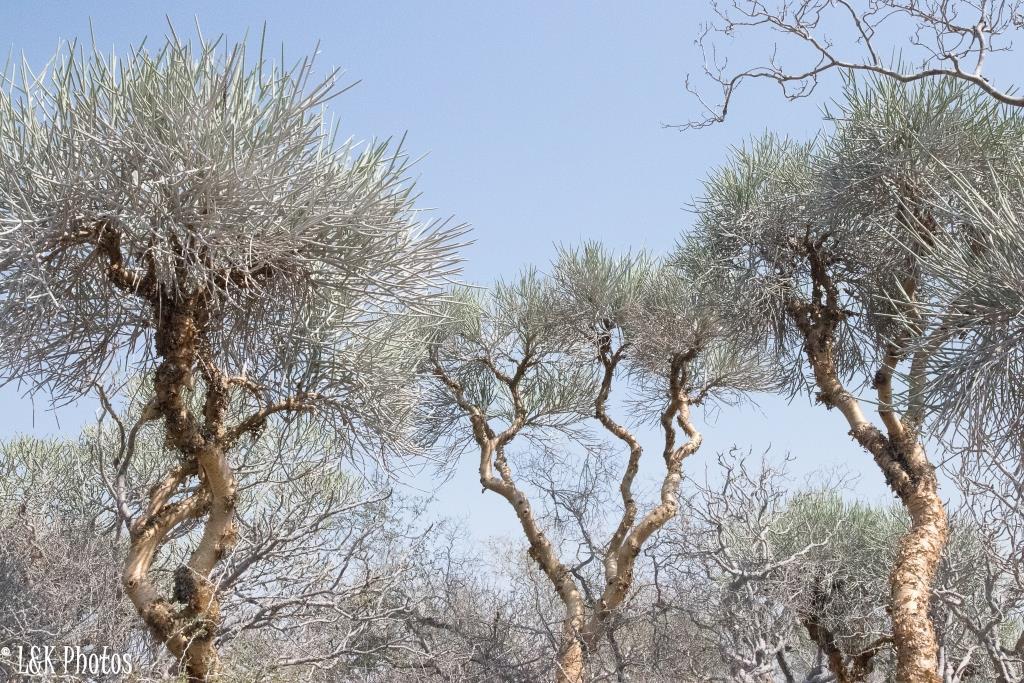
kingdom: Plantae
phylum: Tracheophyta
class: Magnoliopsida
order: Malpighiales
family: Euphorbiaceae
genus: Euphorbia
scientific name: Euphorbia plagiantha
